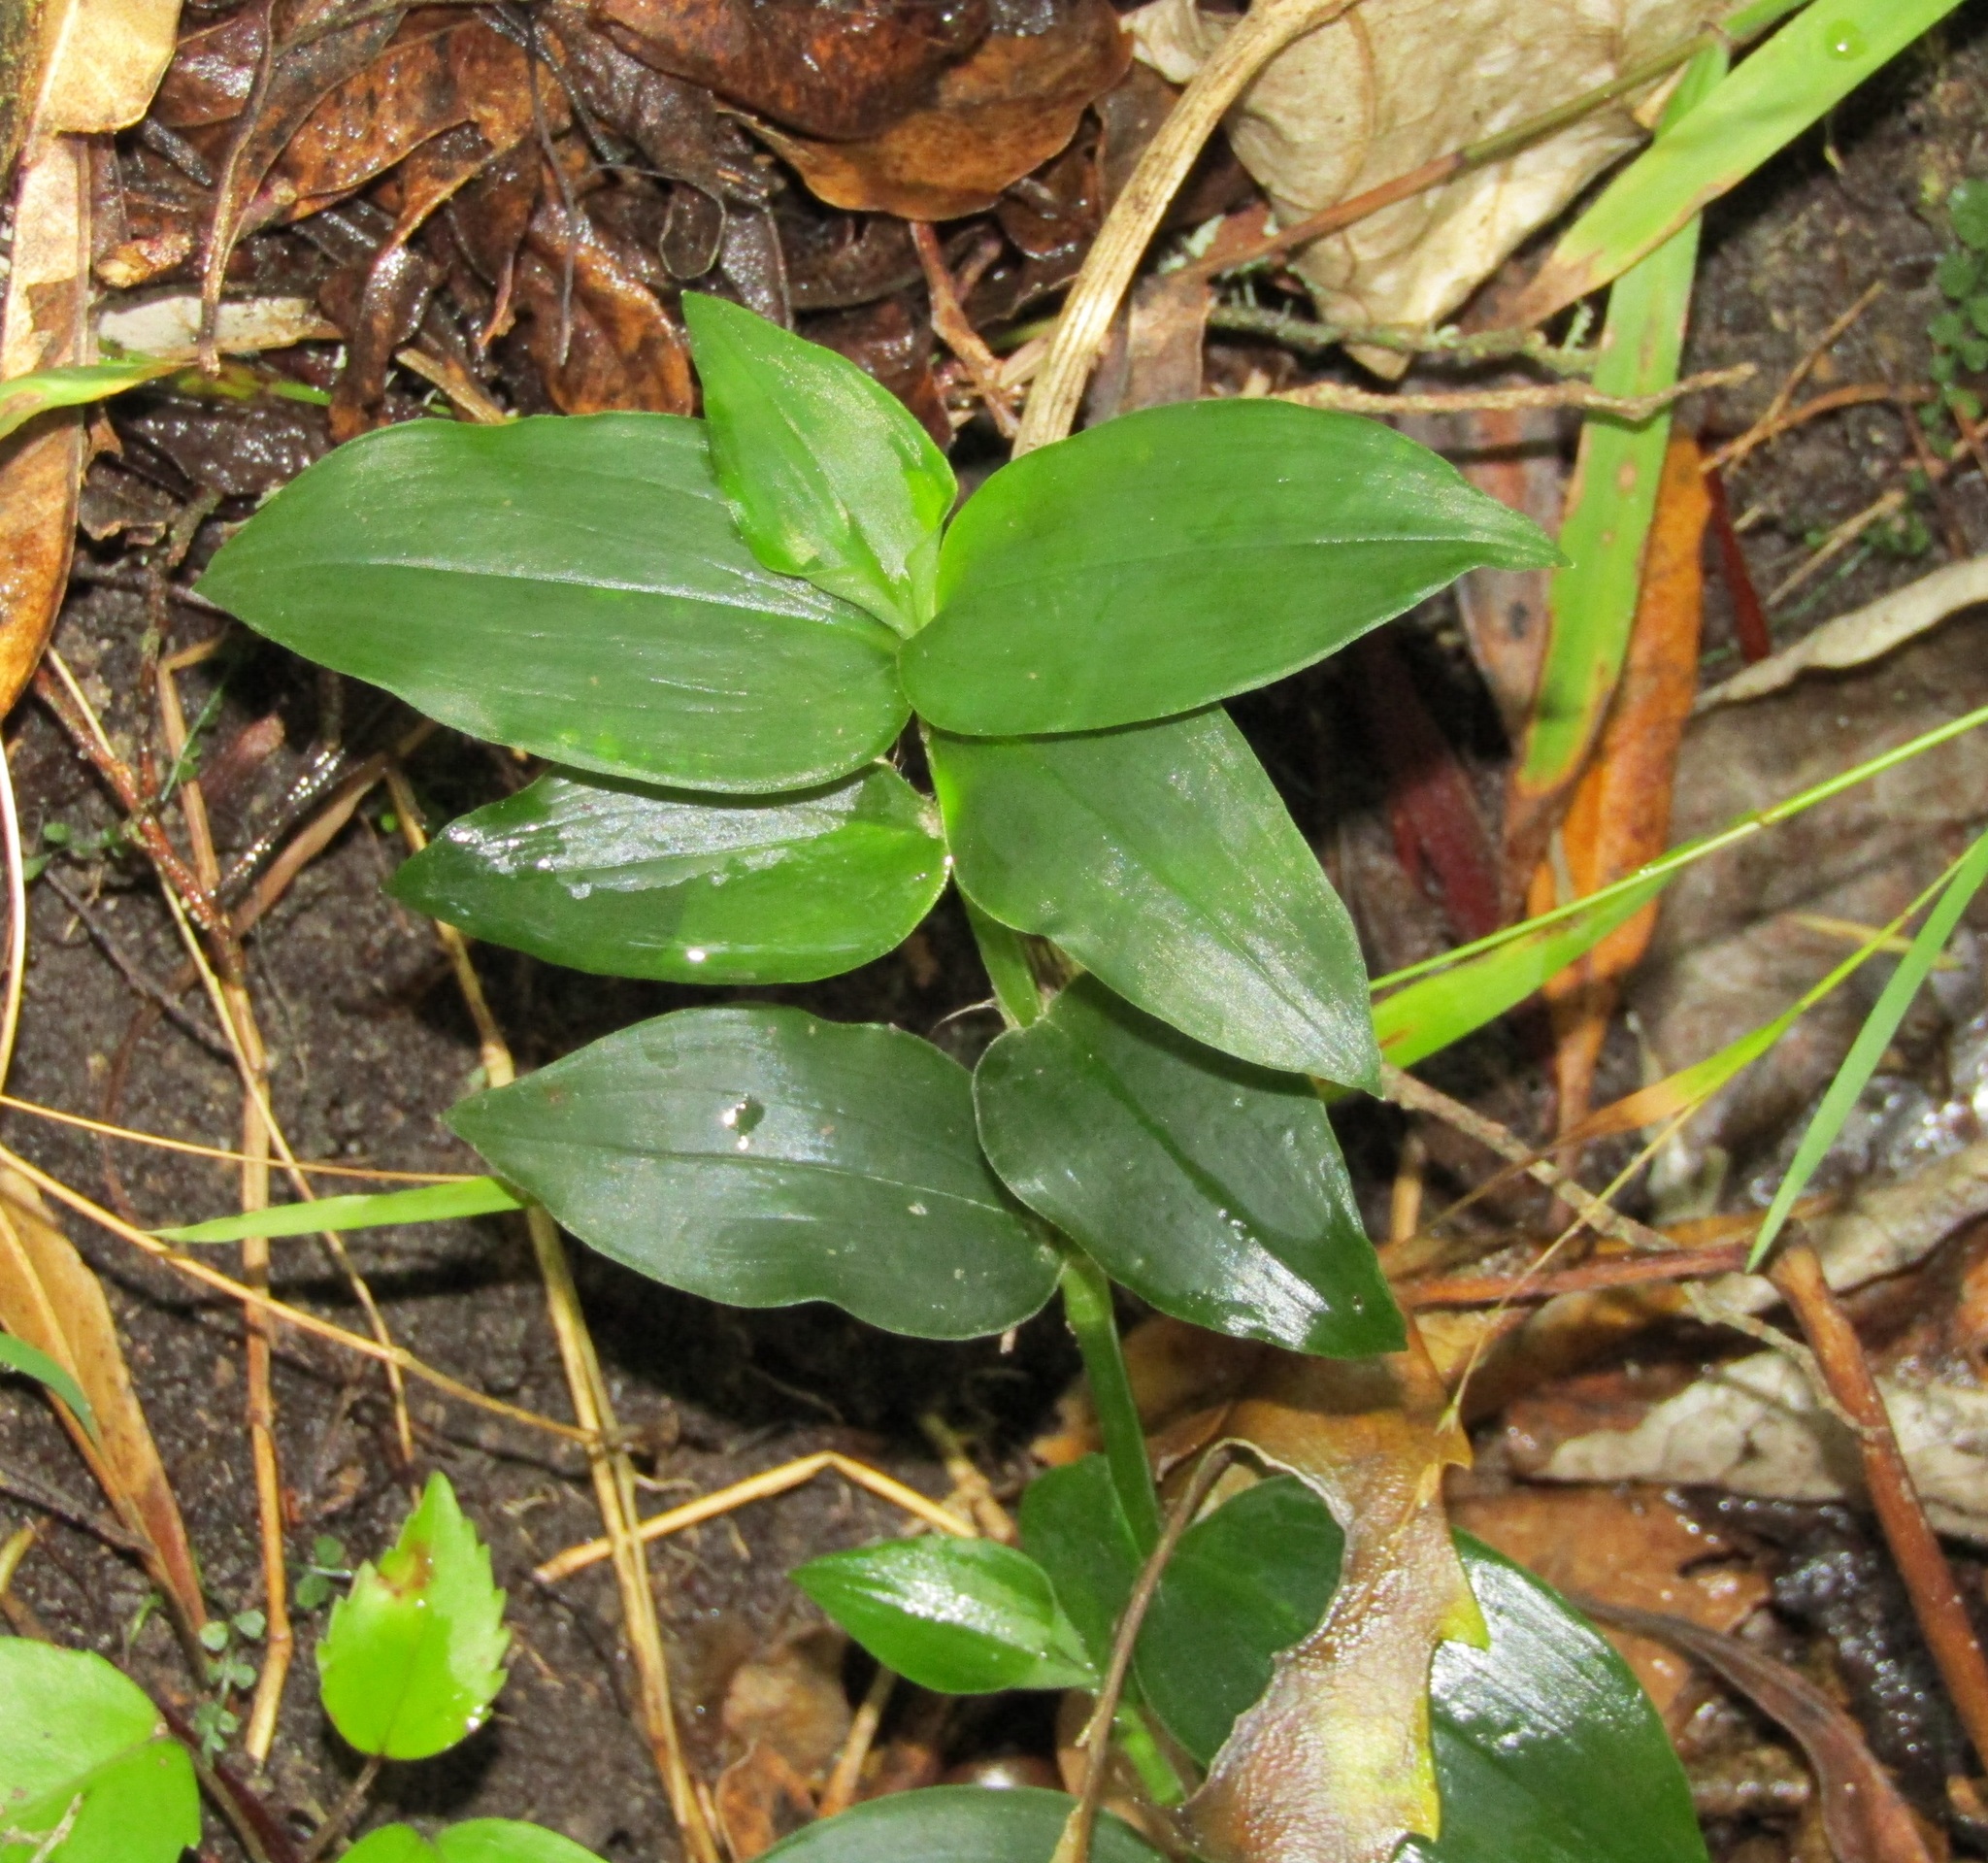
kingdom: Plantae
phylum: Tracheophyta
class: Liliopsida
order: Commelinales
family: Commelinaceae
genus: Tradescantia
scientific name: Tradescantia fluminensis
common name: Wandering-jew
